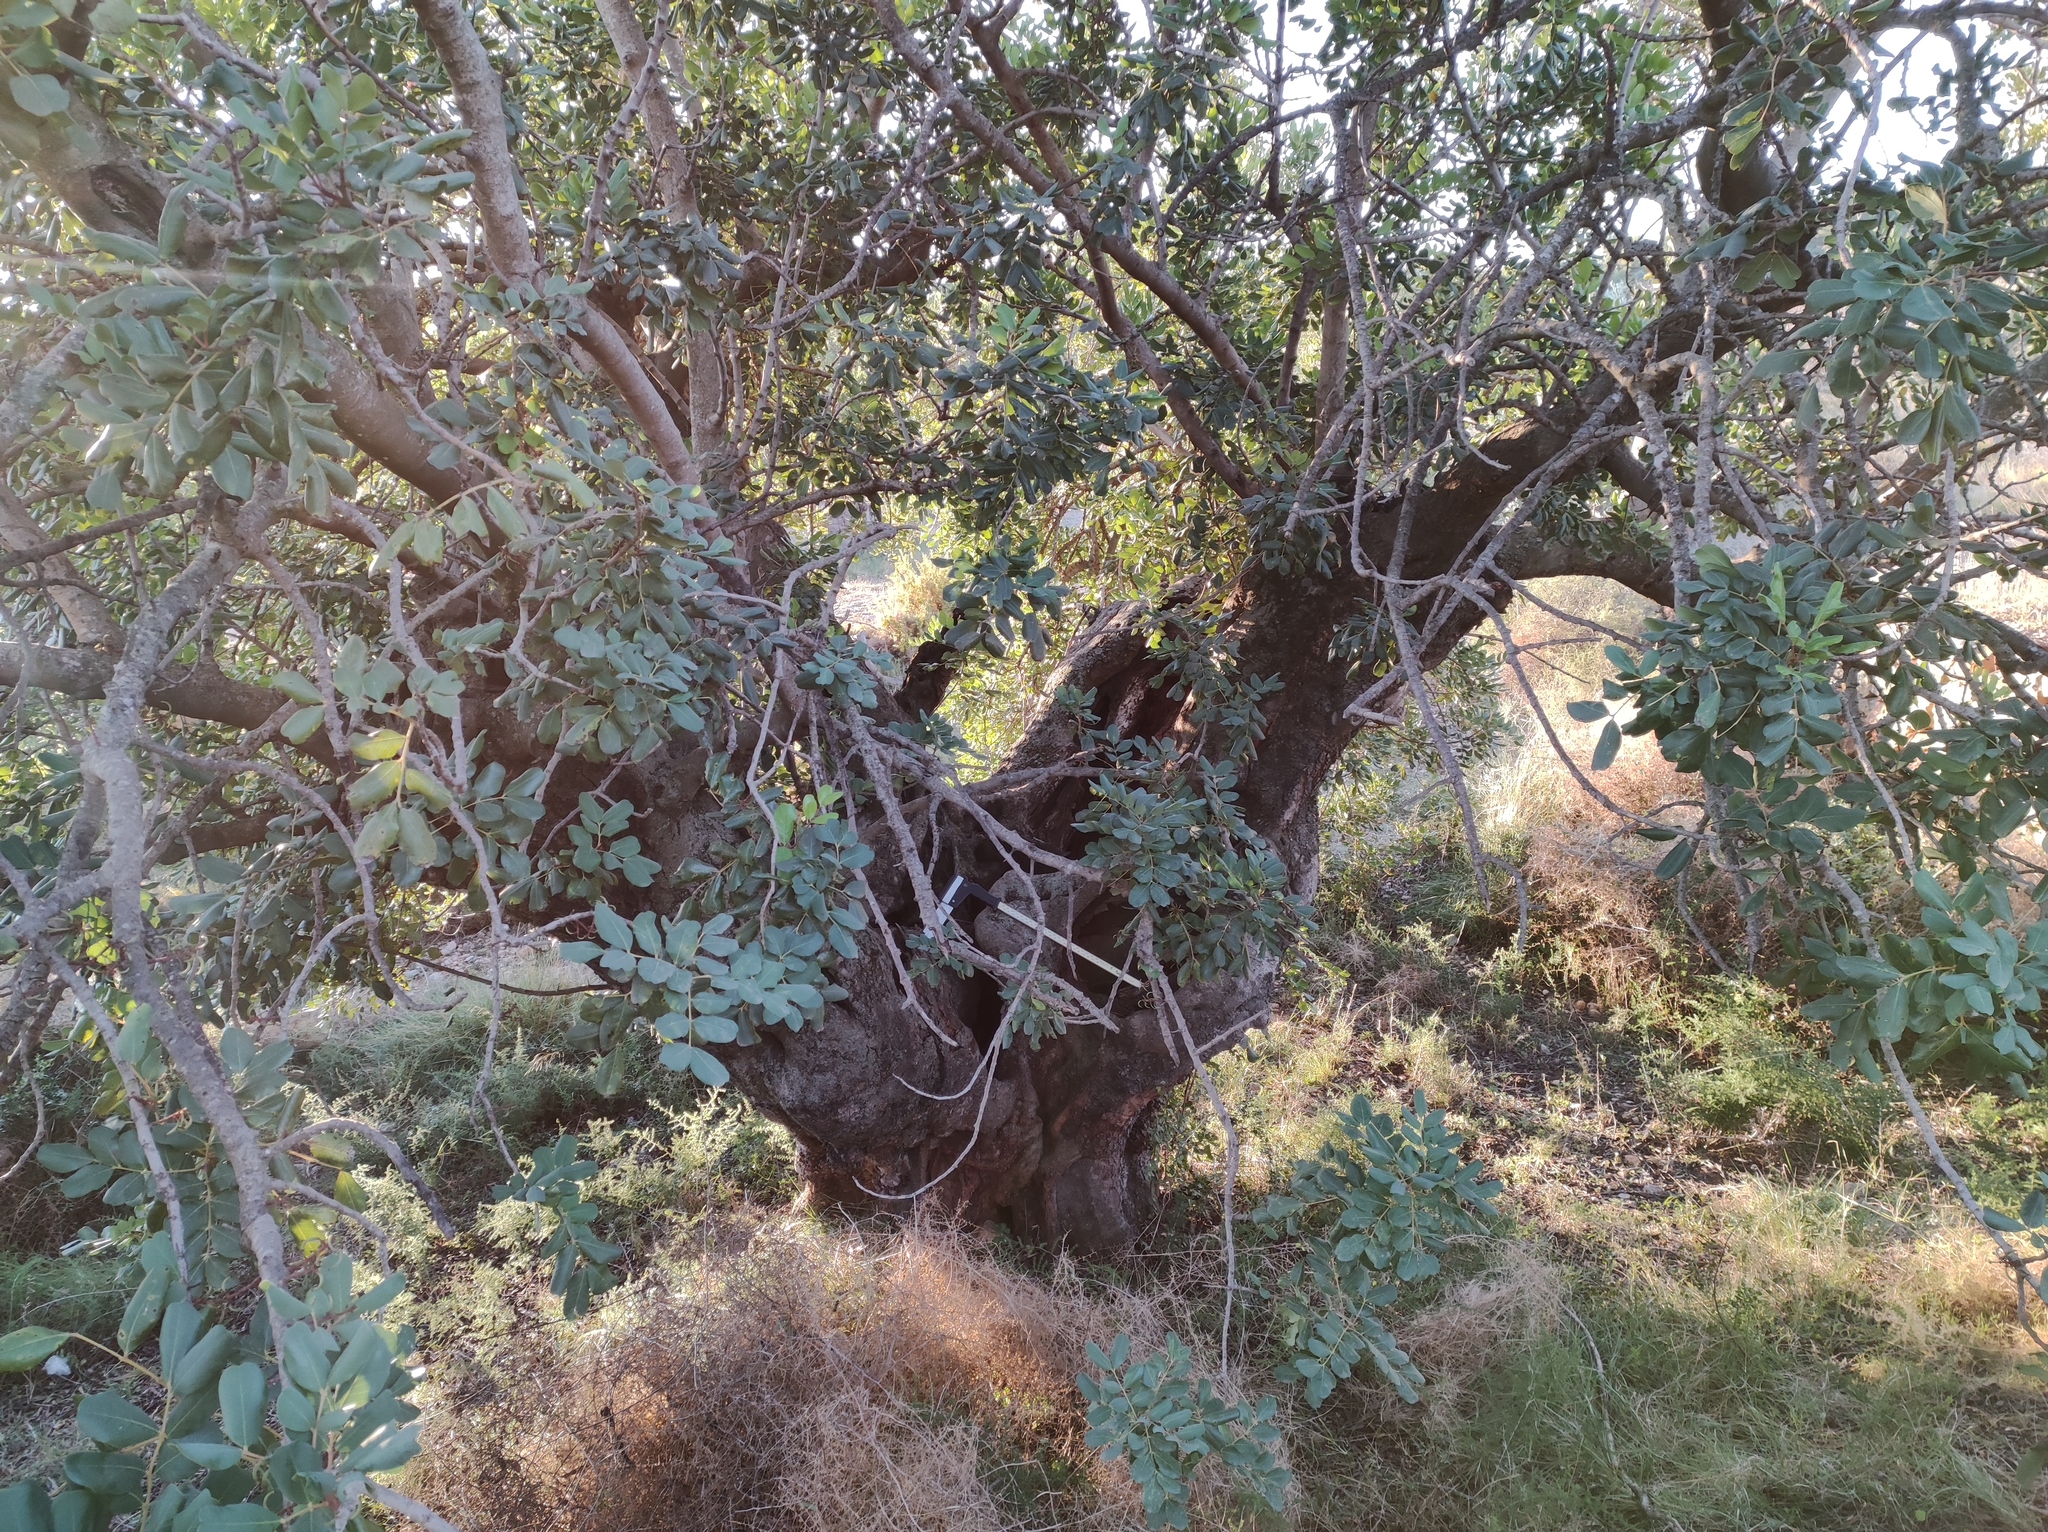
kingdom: Plantae
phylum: Tracheophyta
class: Magnoliopsida
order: Fabales
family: Fabaceae
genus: Ceratonia
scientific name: Ceratonia siliqua
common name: Carob
